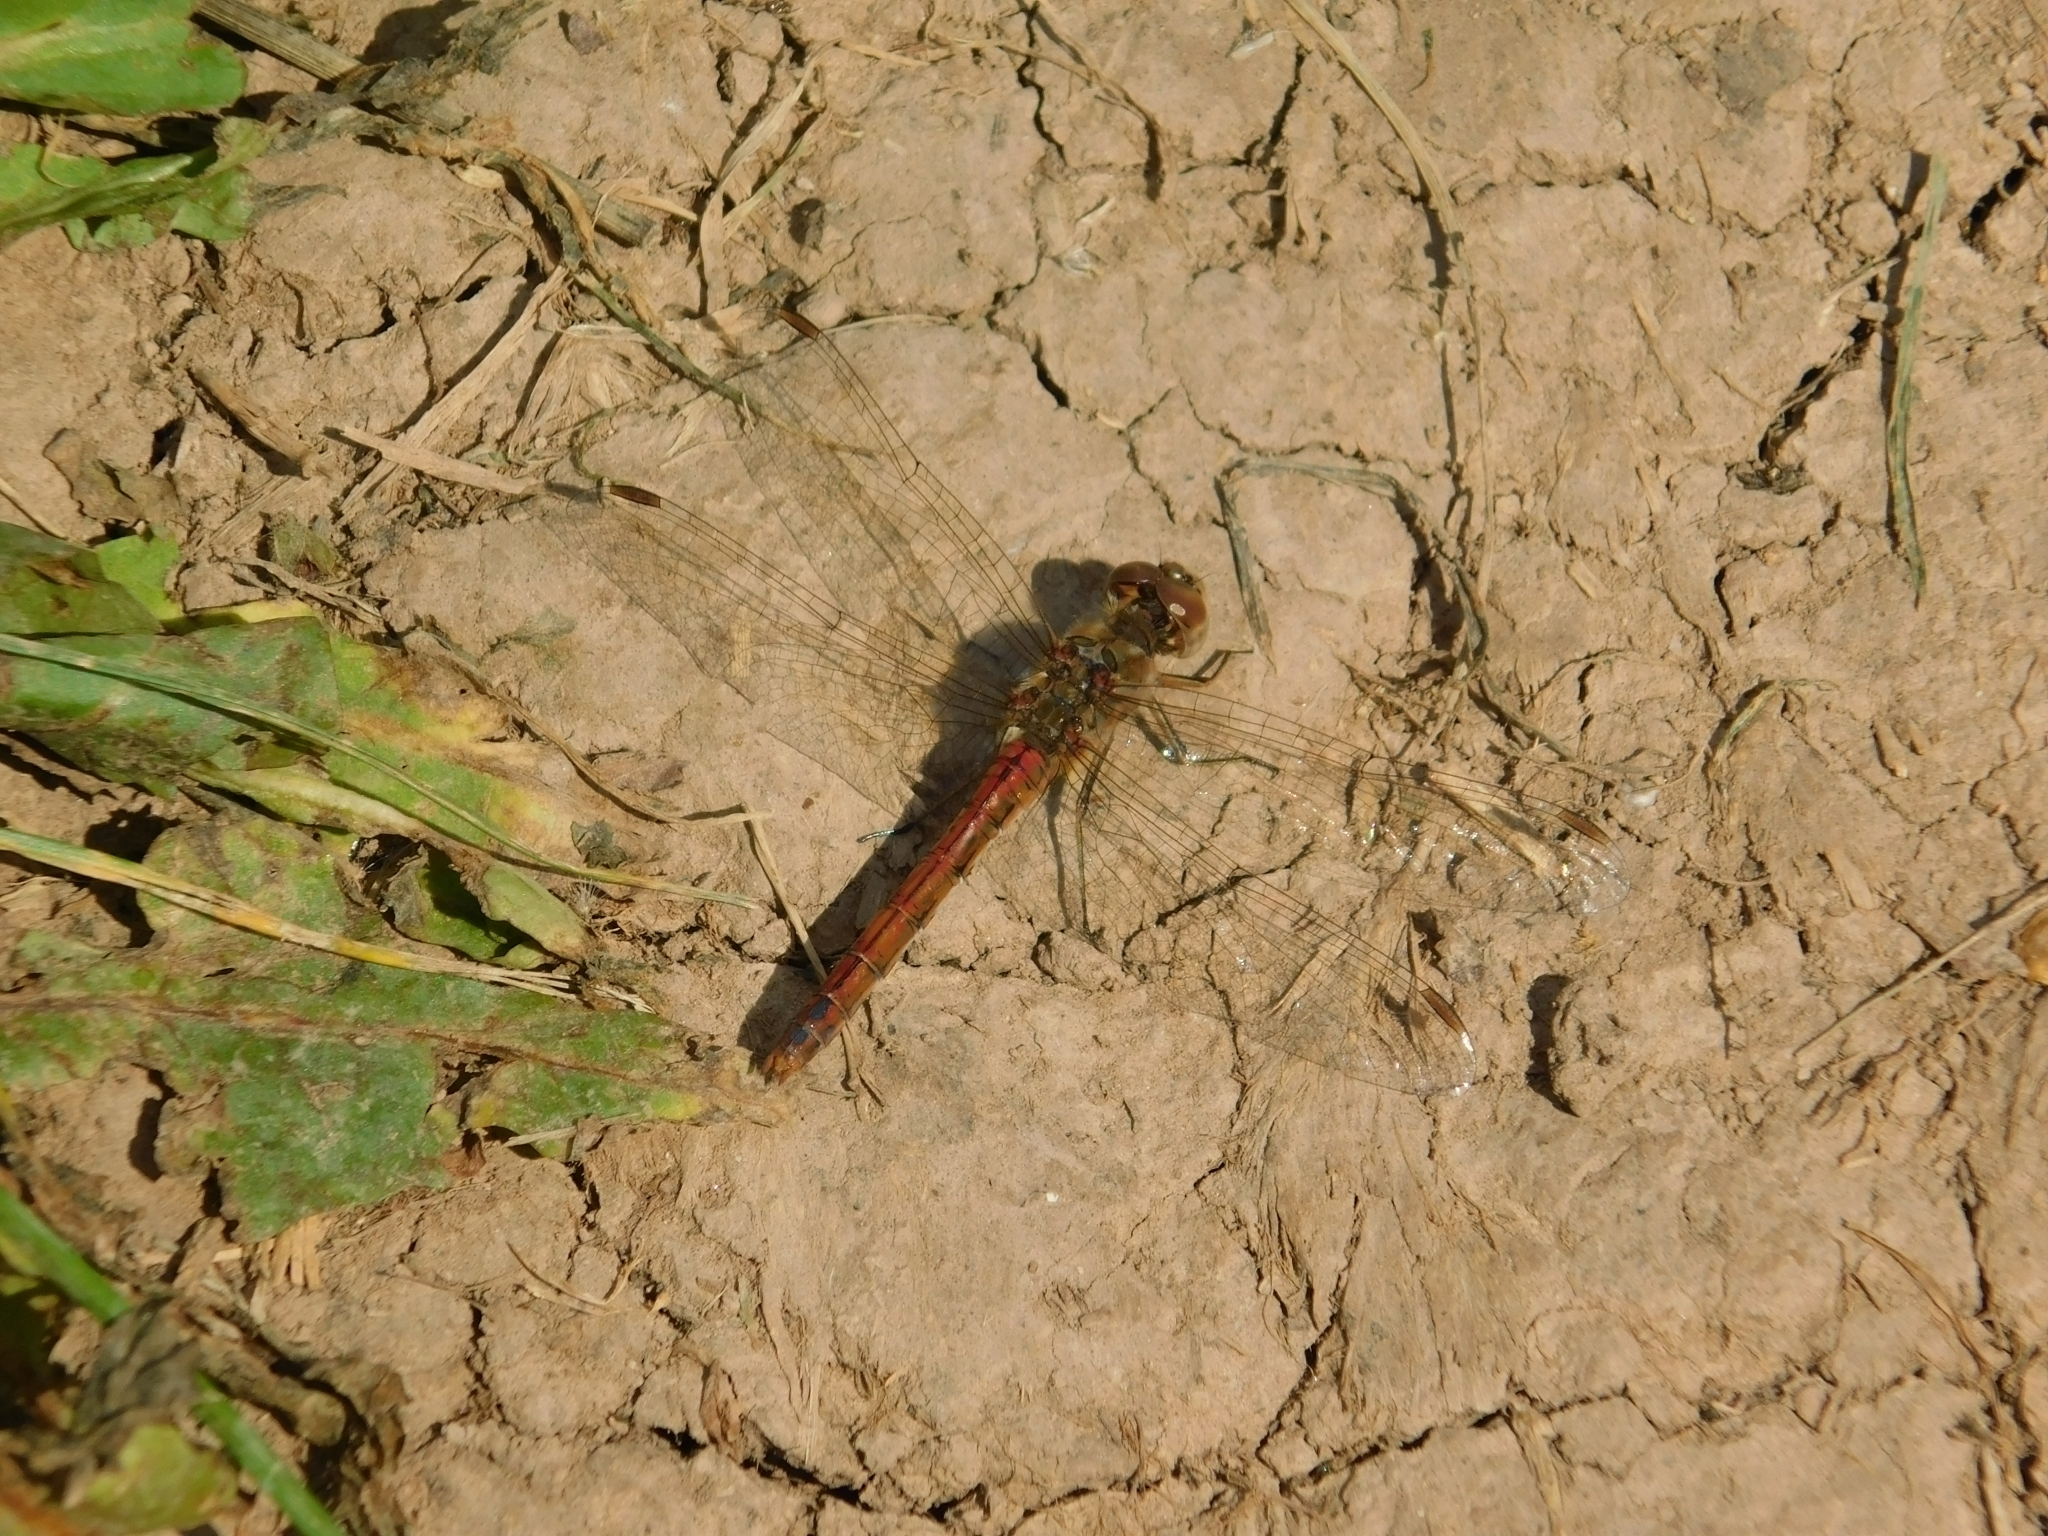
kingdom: Animalia
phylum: Arthropoda
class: Insecta
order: Odonata
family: Libellulidae
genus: Sympetrum
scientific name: Sympetrum vulgatum
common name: Vagrant darter
